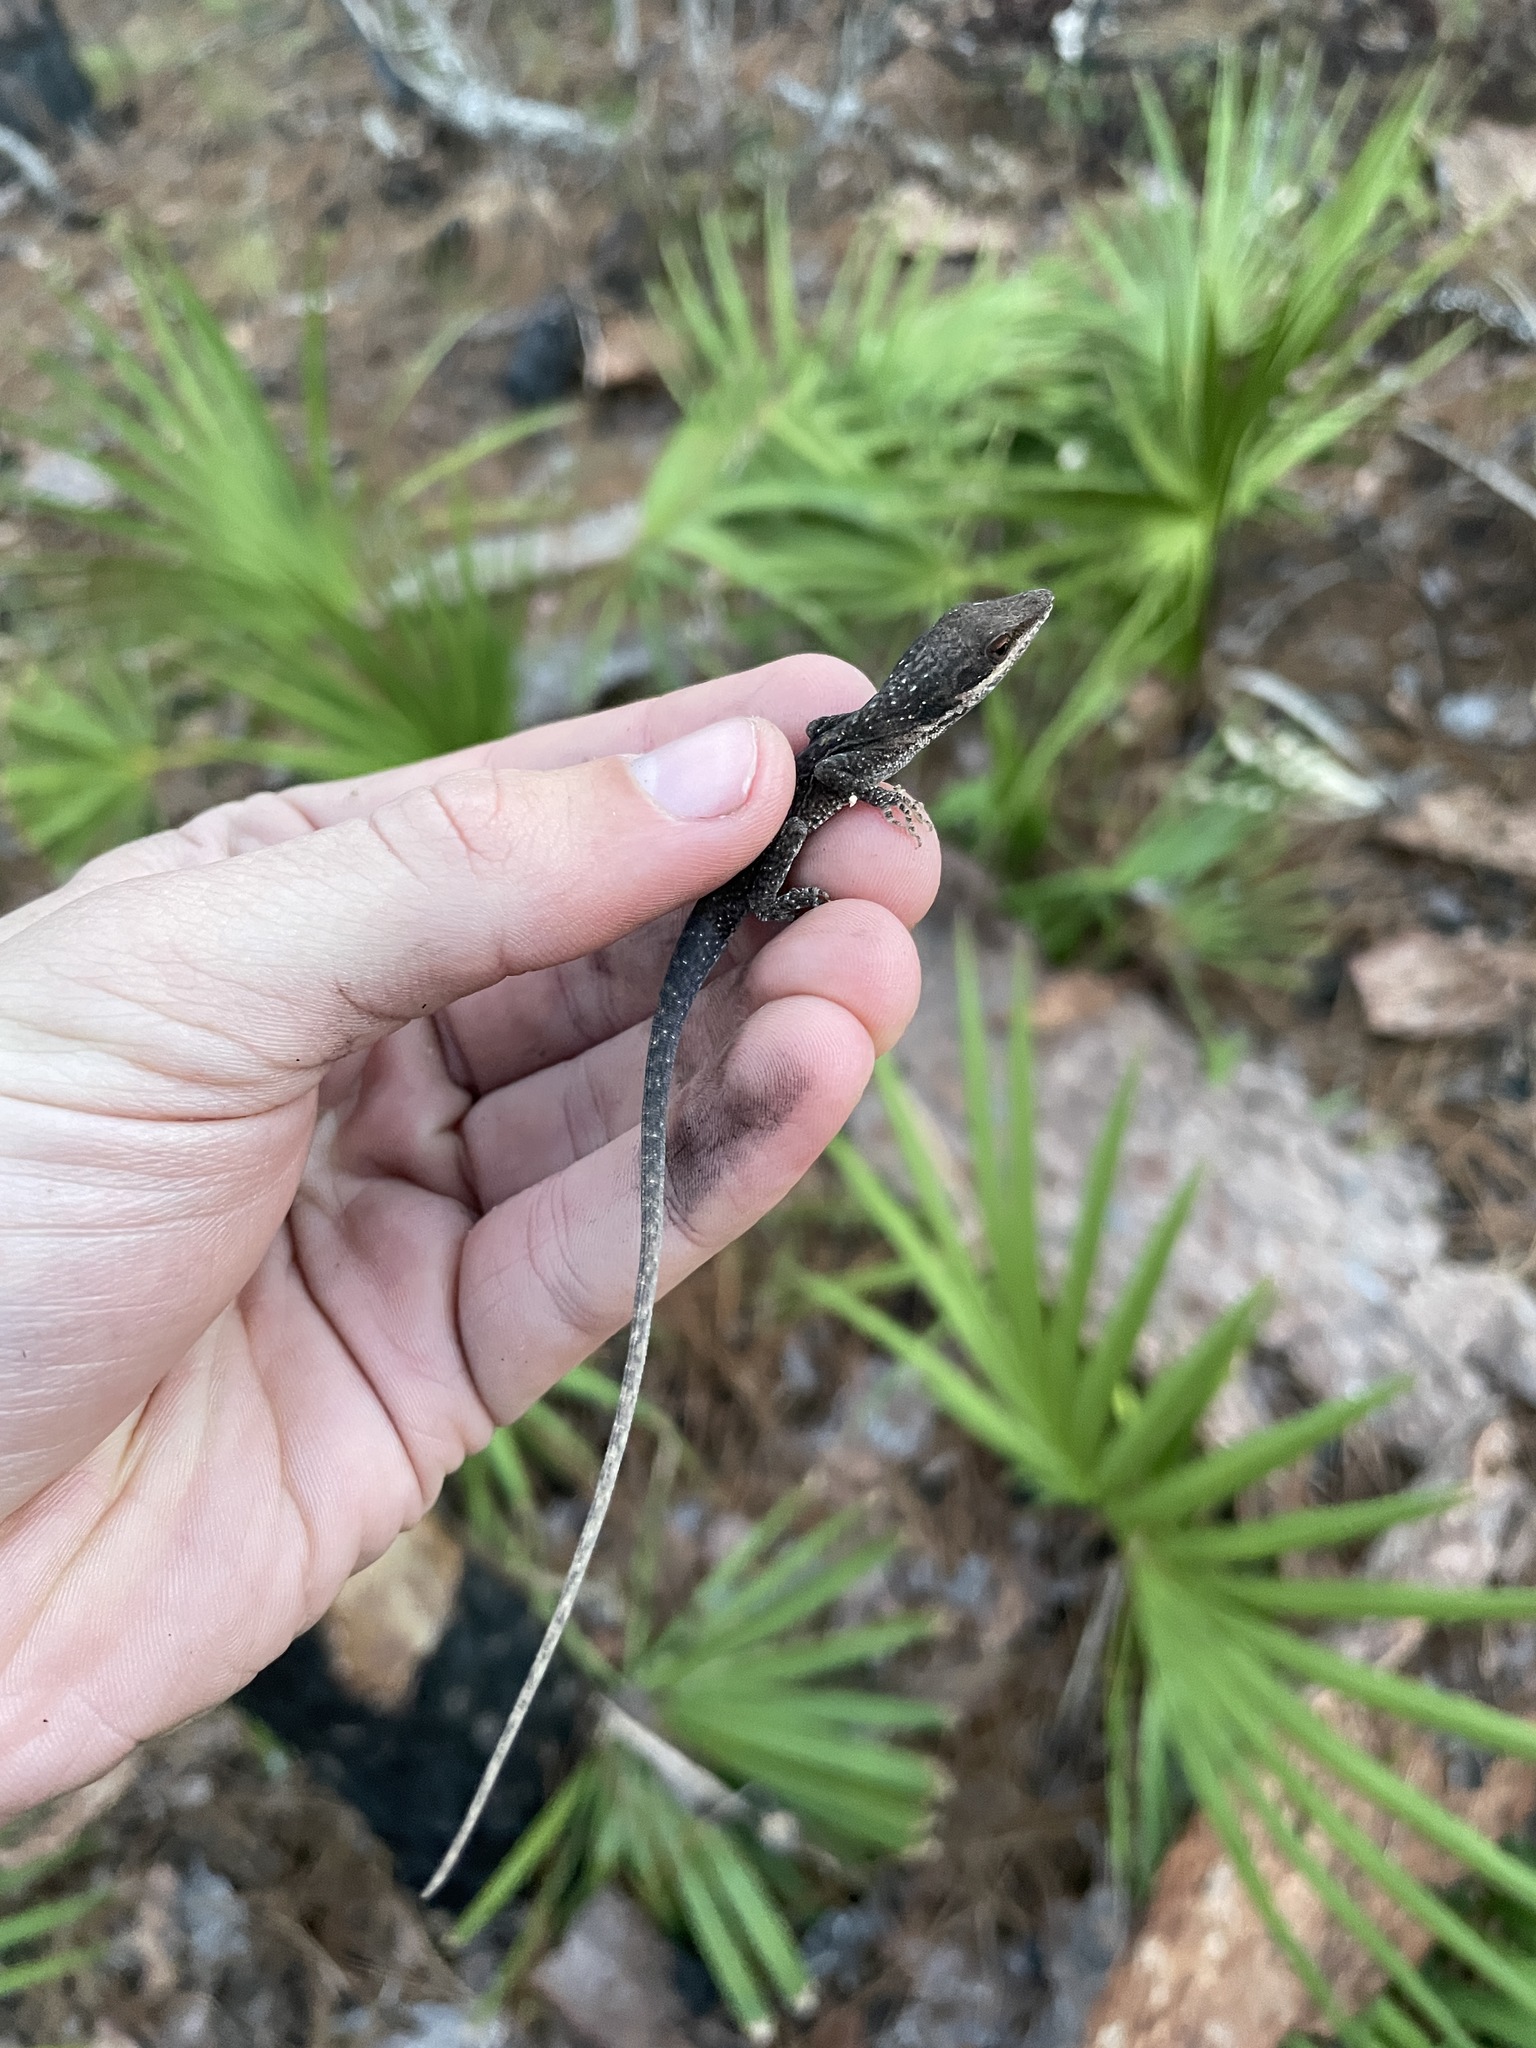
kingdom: Animalia
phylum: Chordata
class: Squamata
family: Dactyloidae
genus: Anolis
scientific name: Anolis carolinensis
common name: Green anole
